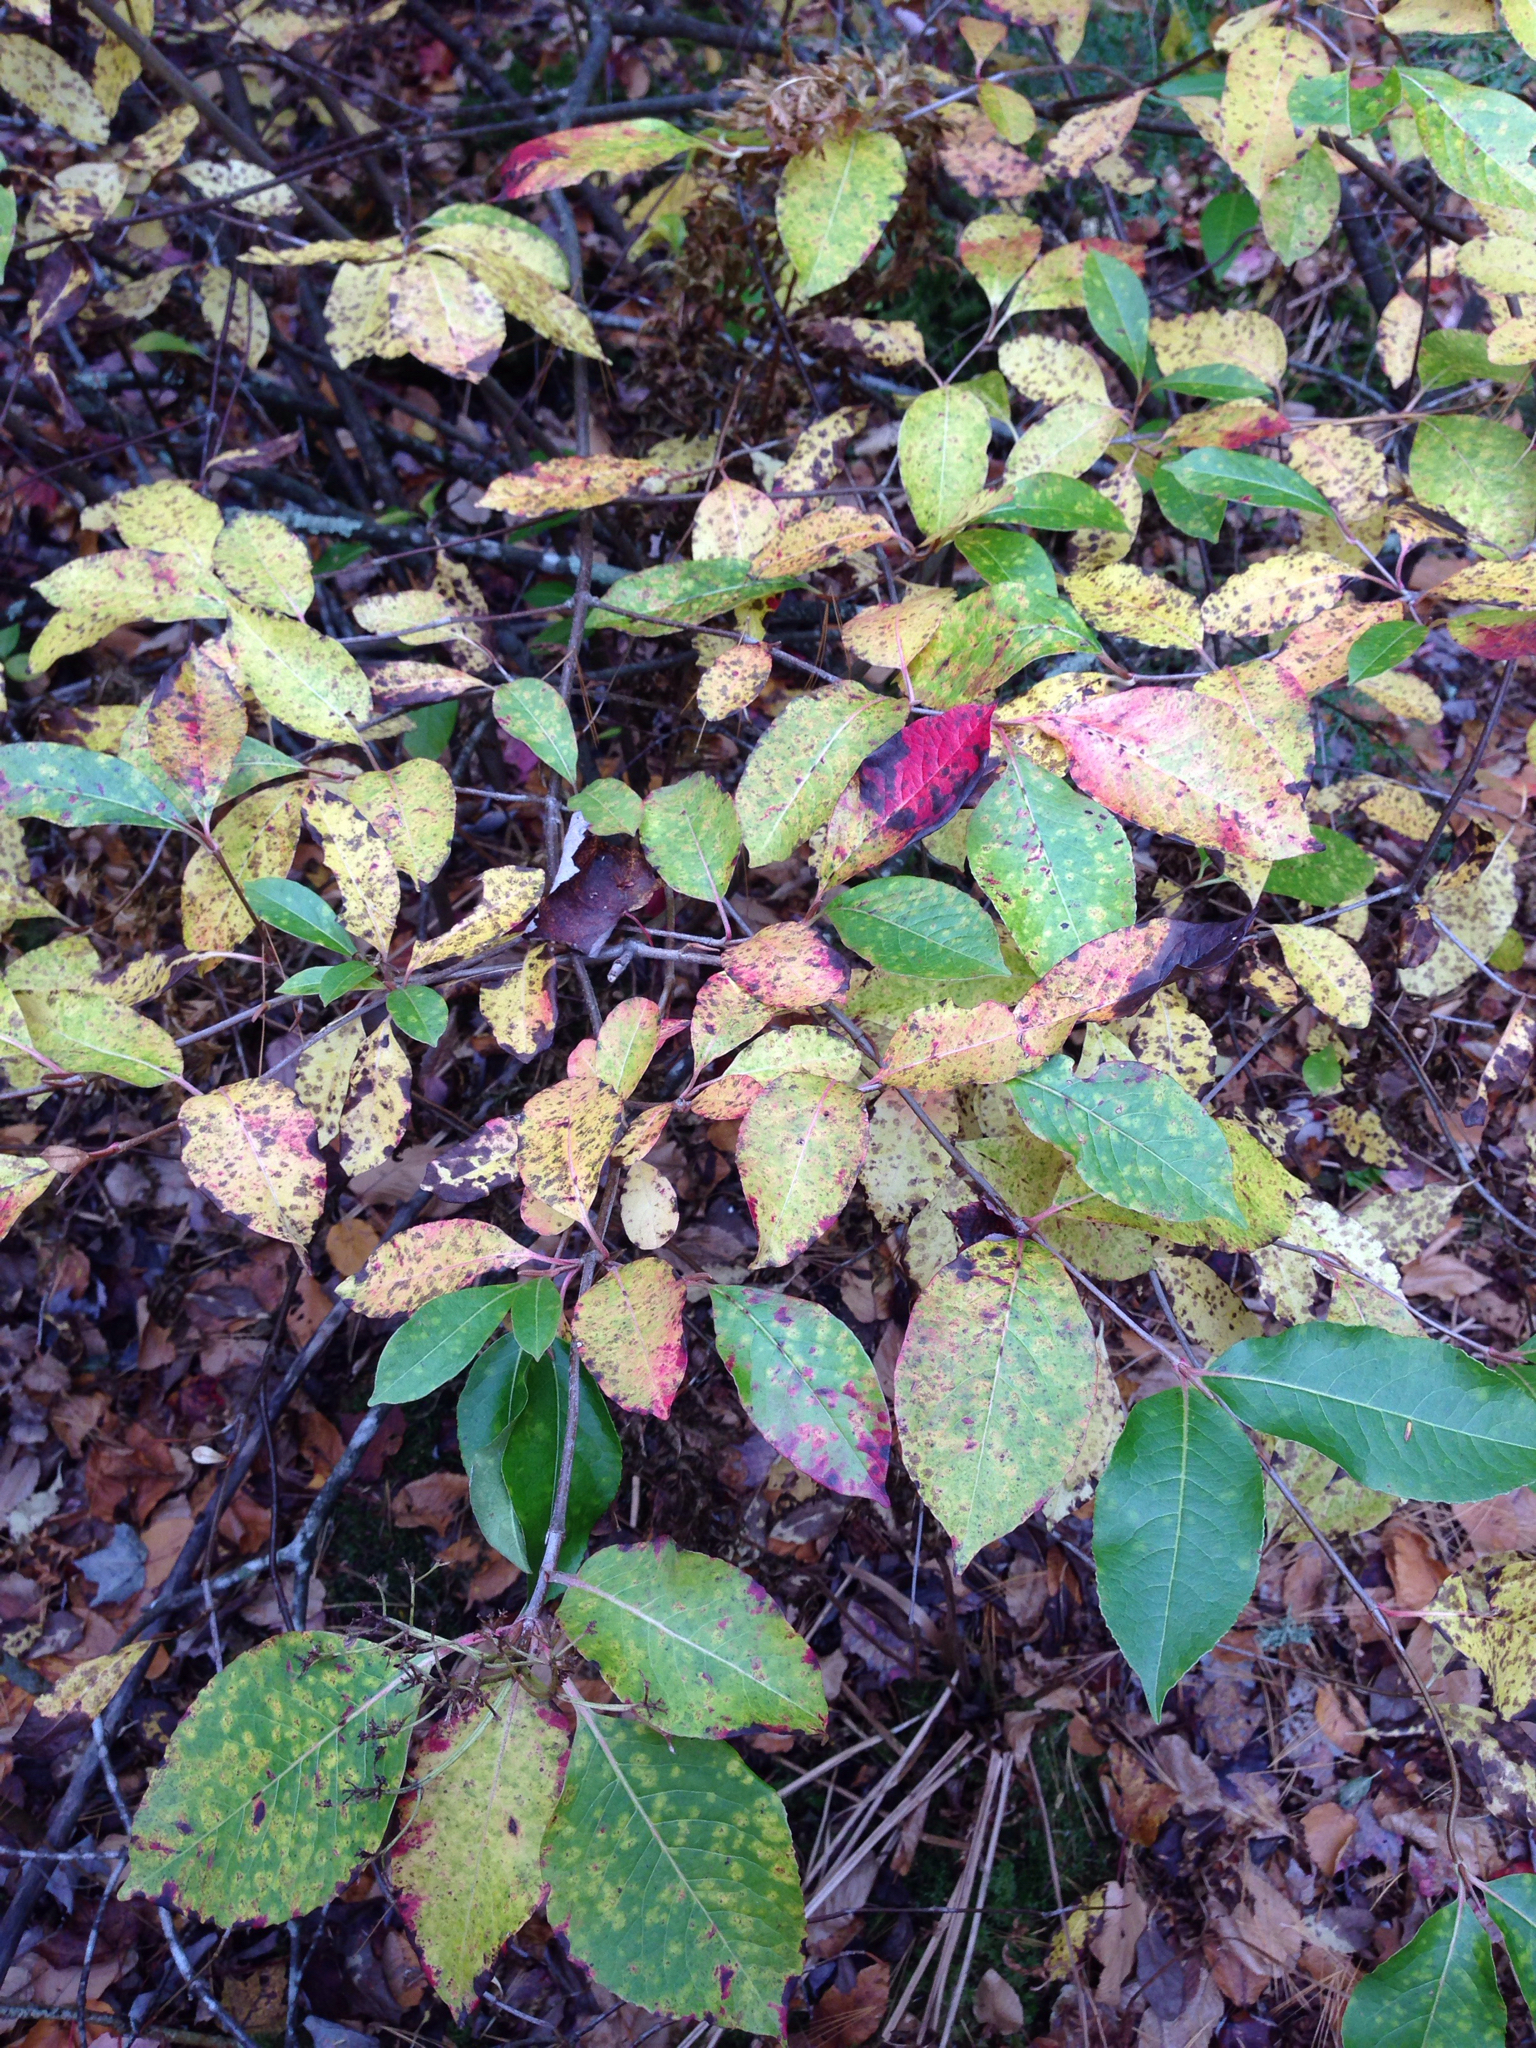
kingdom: Plantae
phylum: Tracheophyta
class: Magnoliopsida
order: Dipsacales
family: Viburnaceae
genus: Viburnum
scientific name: Viburnum cassinoides
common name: Swamp haw
